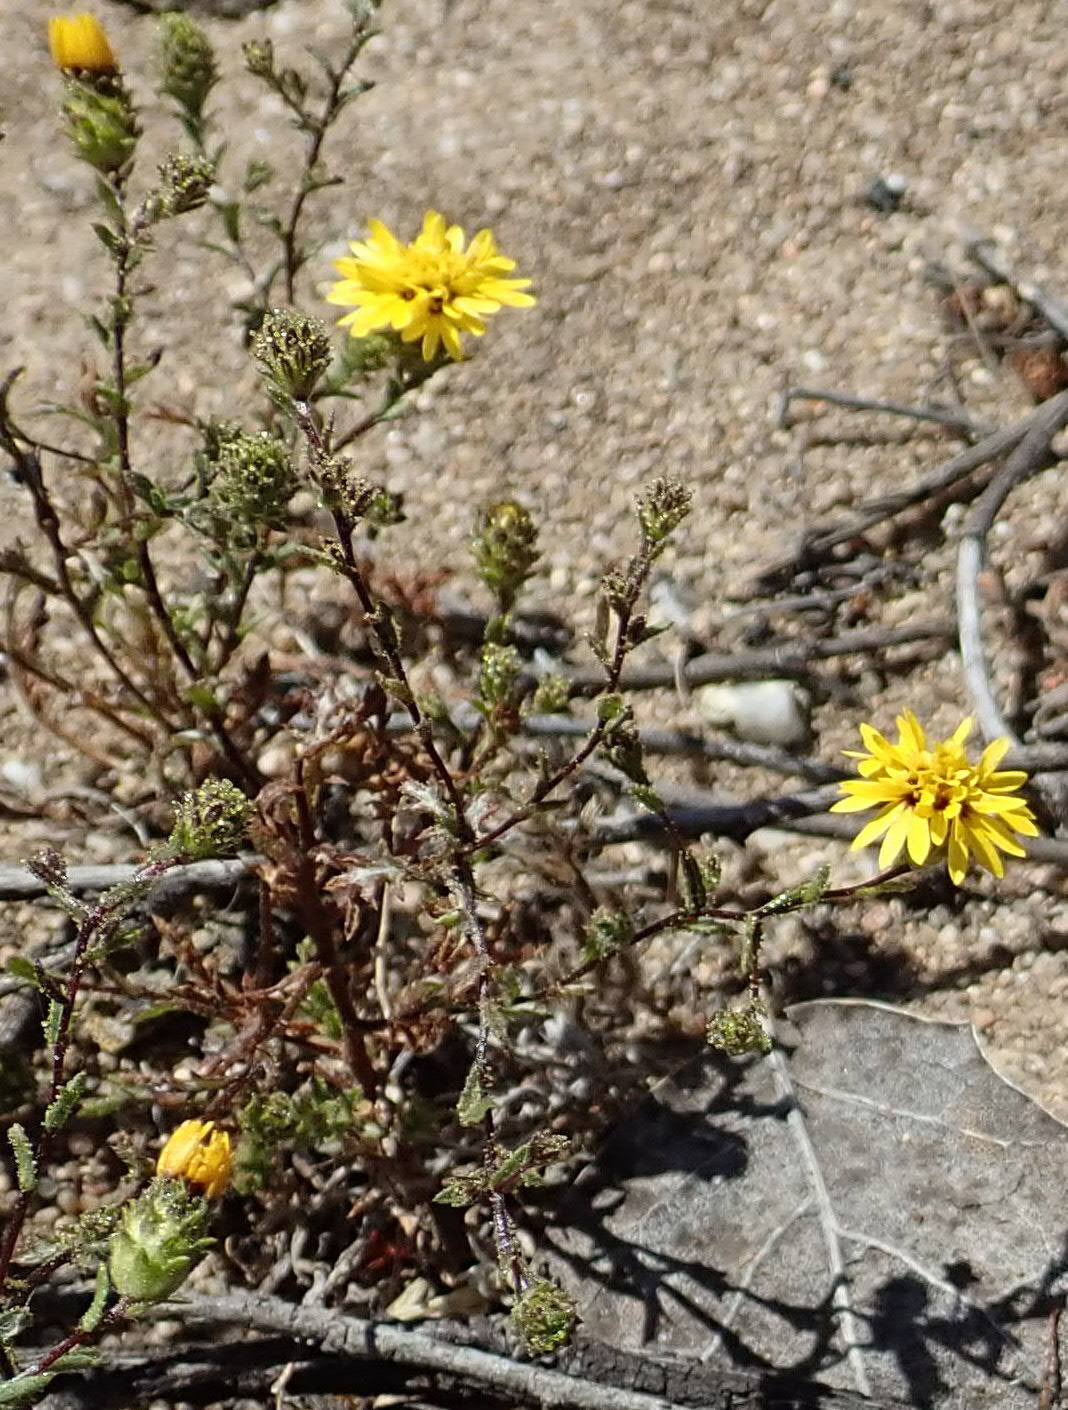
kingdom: Plantae
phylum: Tracheophyta
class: Magnoliopsida
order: Asterales
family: Asteraceae
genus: Lessingia
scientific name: Lessingia pectinata
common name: Valley lessingia
